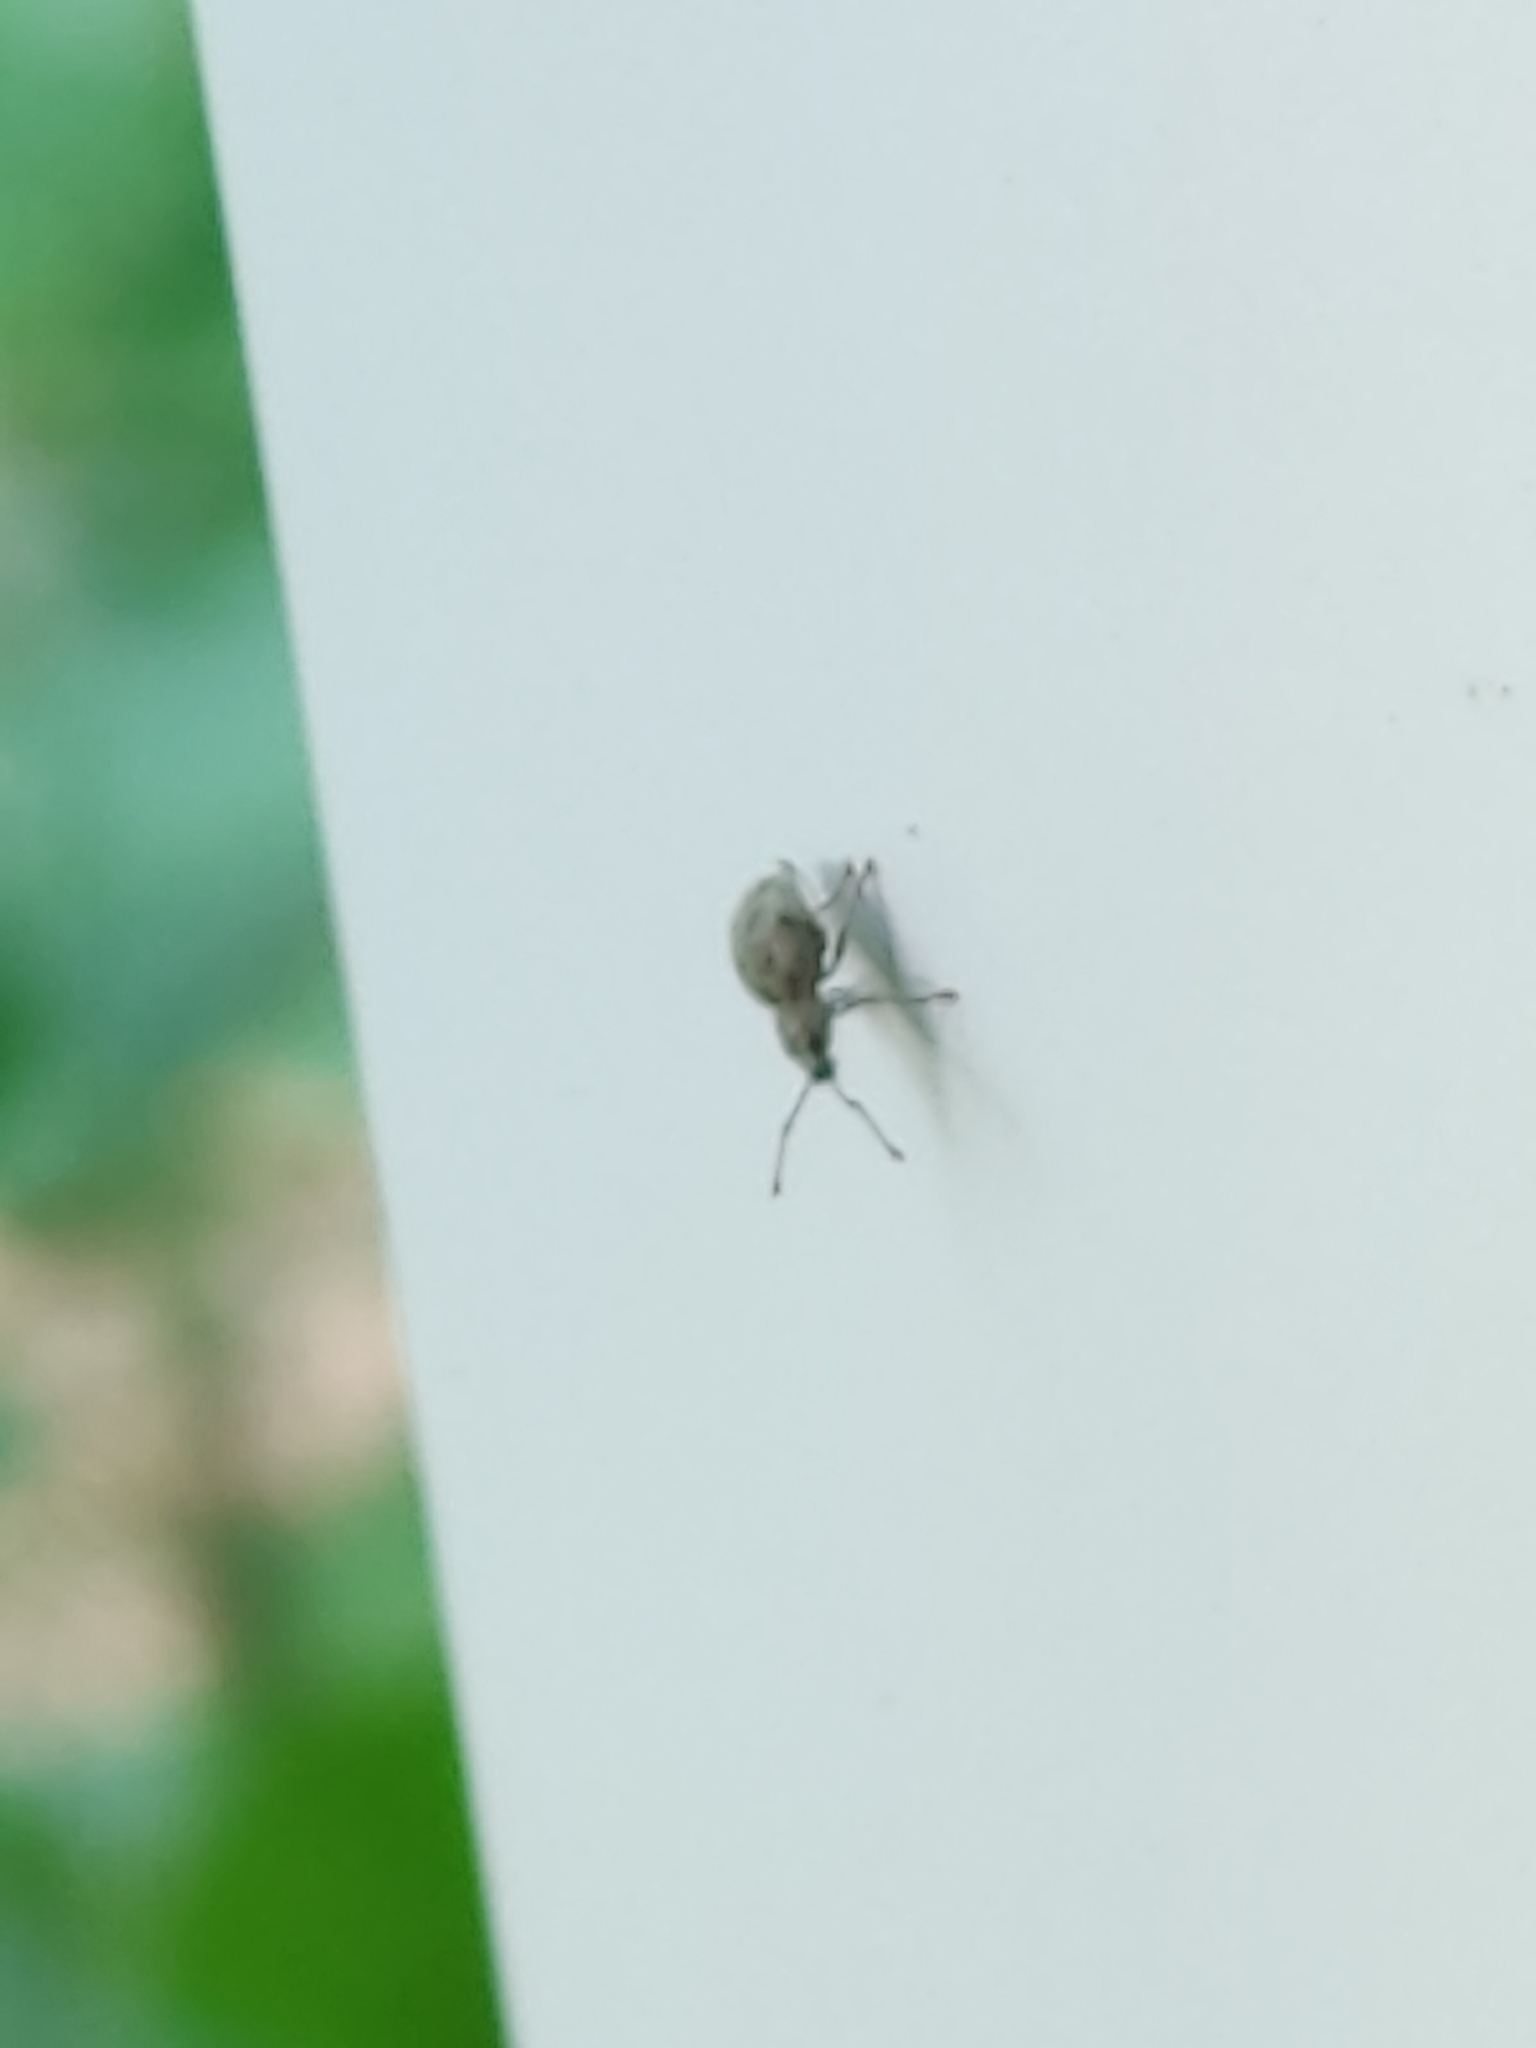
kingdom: Animalia
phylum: Arthropoda
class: Insecta
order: Coleoptera
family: Curculionidae
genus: Calomycterus
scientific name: Calomycterus setarius
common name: Weevil
